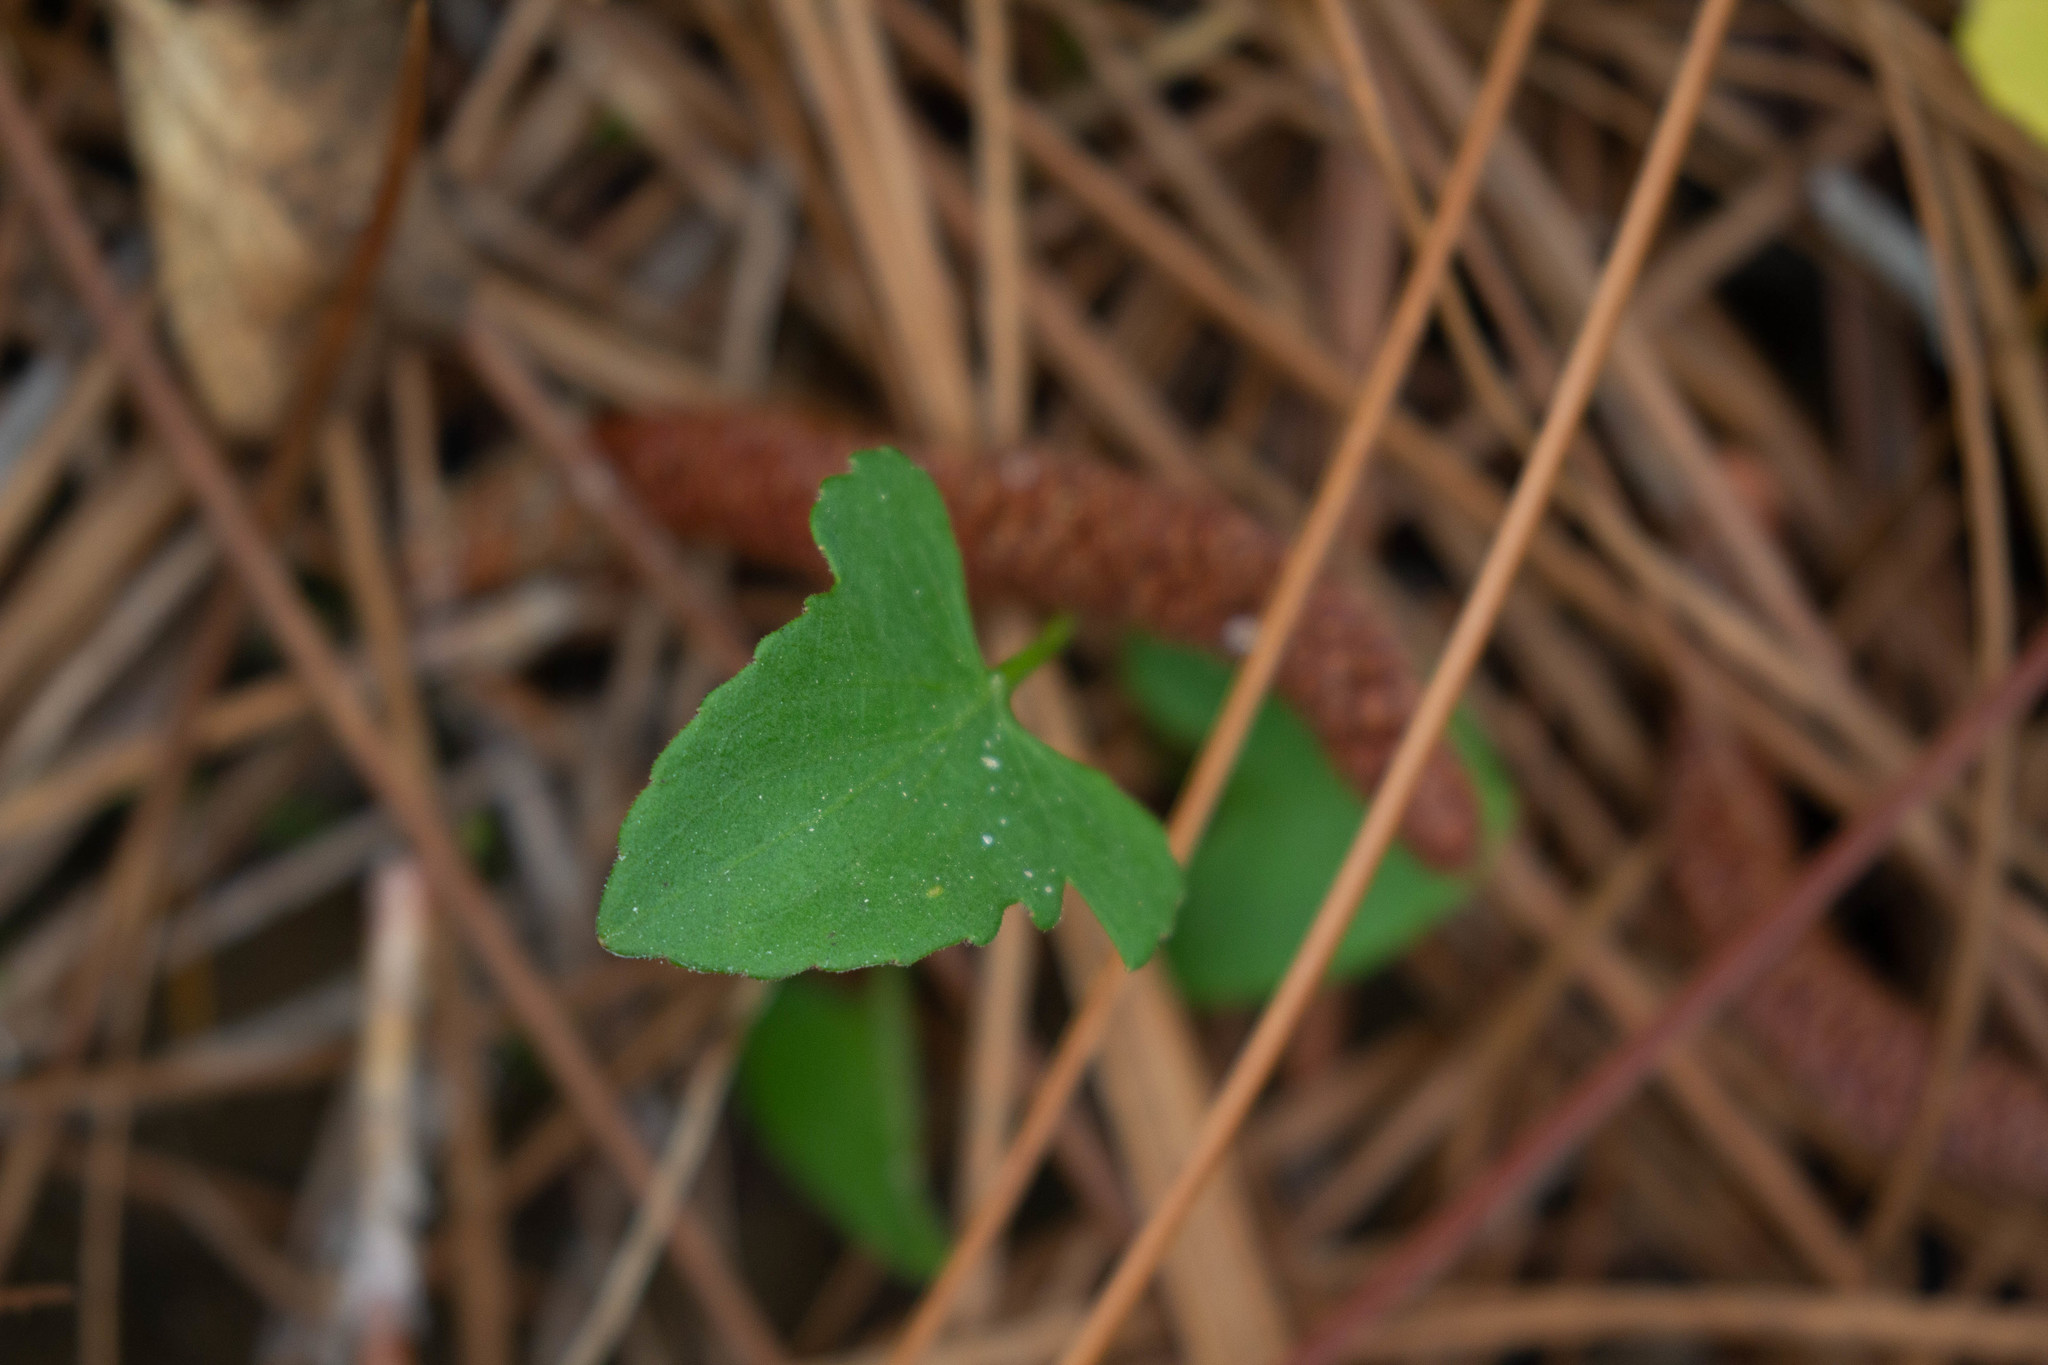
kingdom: Plantae
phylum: Tracheophyta
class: Magnoliopsida
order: Malpighiales
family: Violaceae
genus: Viola
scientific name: Viola primulifolia
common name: Primrose-leaf violet
